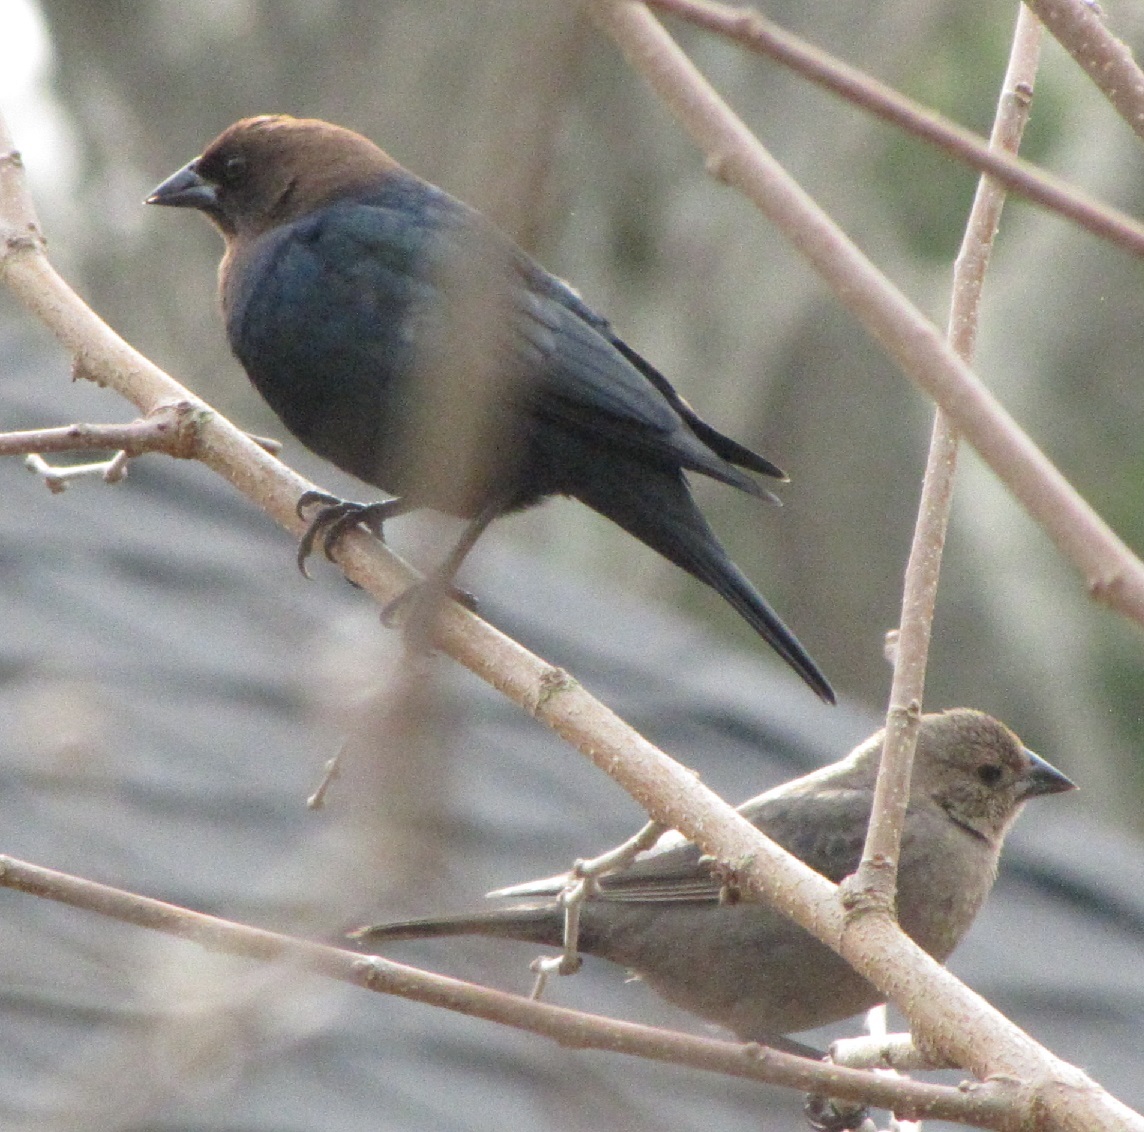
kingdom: Animalia
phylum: Chordata
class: Aves
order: Passeriformes
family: Icteridae
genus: Molothrus
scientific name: Molothrus ater
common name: Brown-headed cowbird
